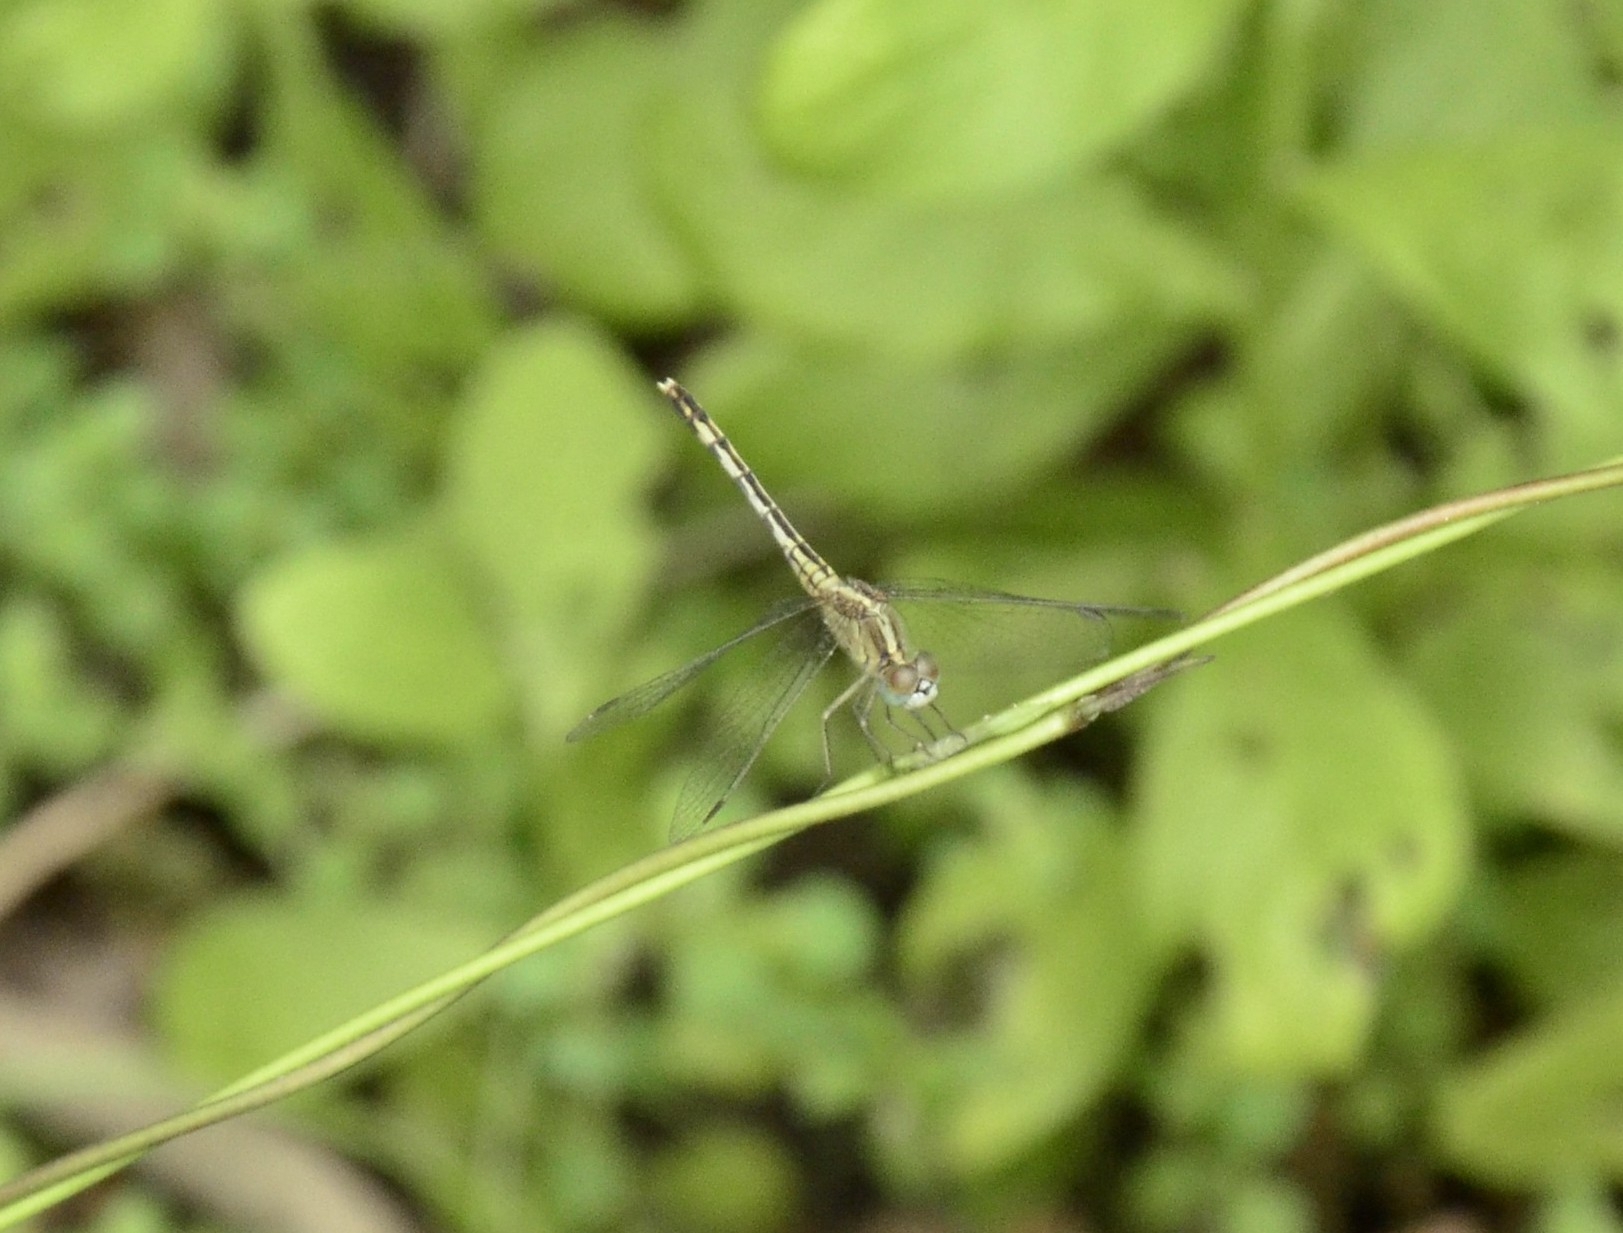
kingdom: Animalia
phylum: Arthropoda
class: Insecta
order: Odonata
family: Libellulidae
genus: Diplacodes
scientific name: Diplacodes trivialis
